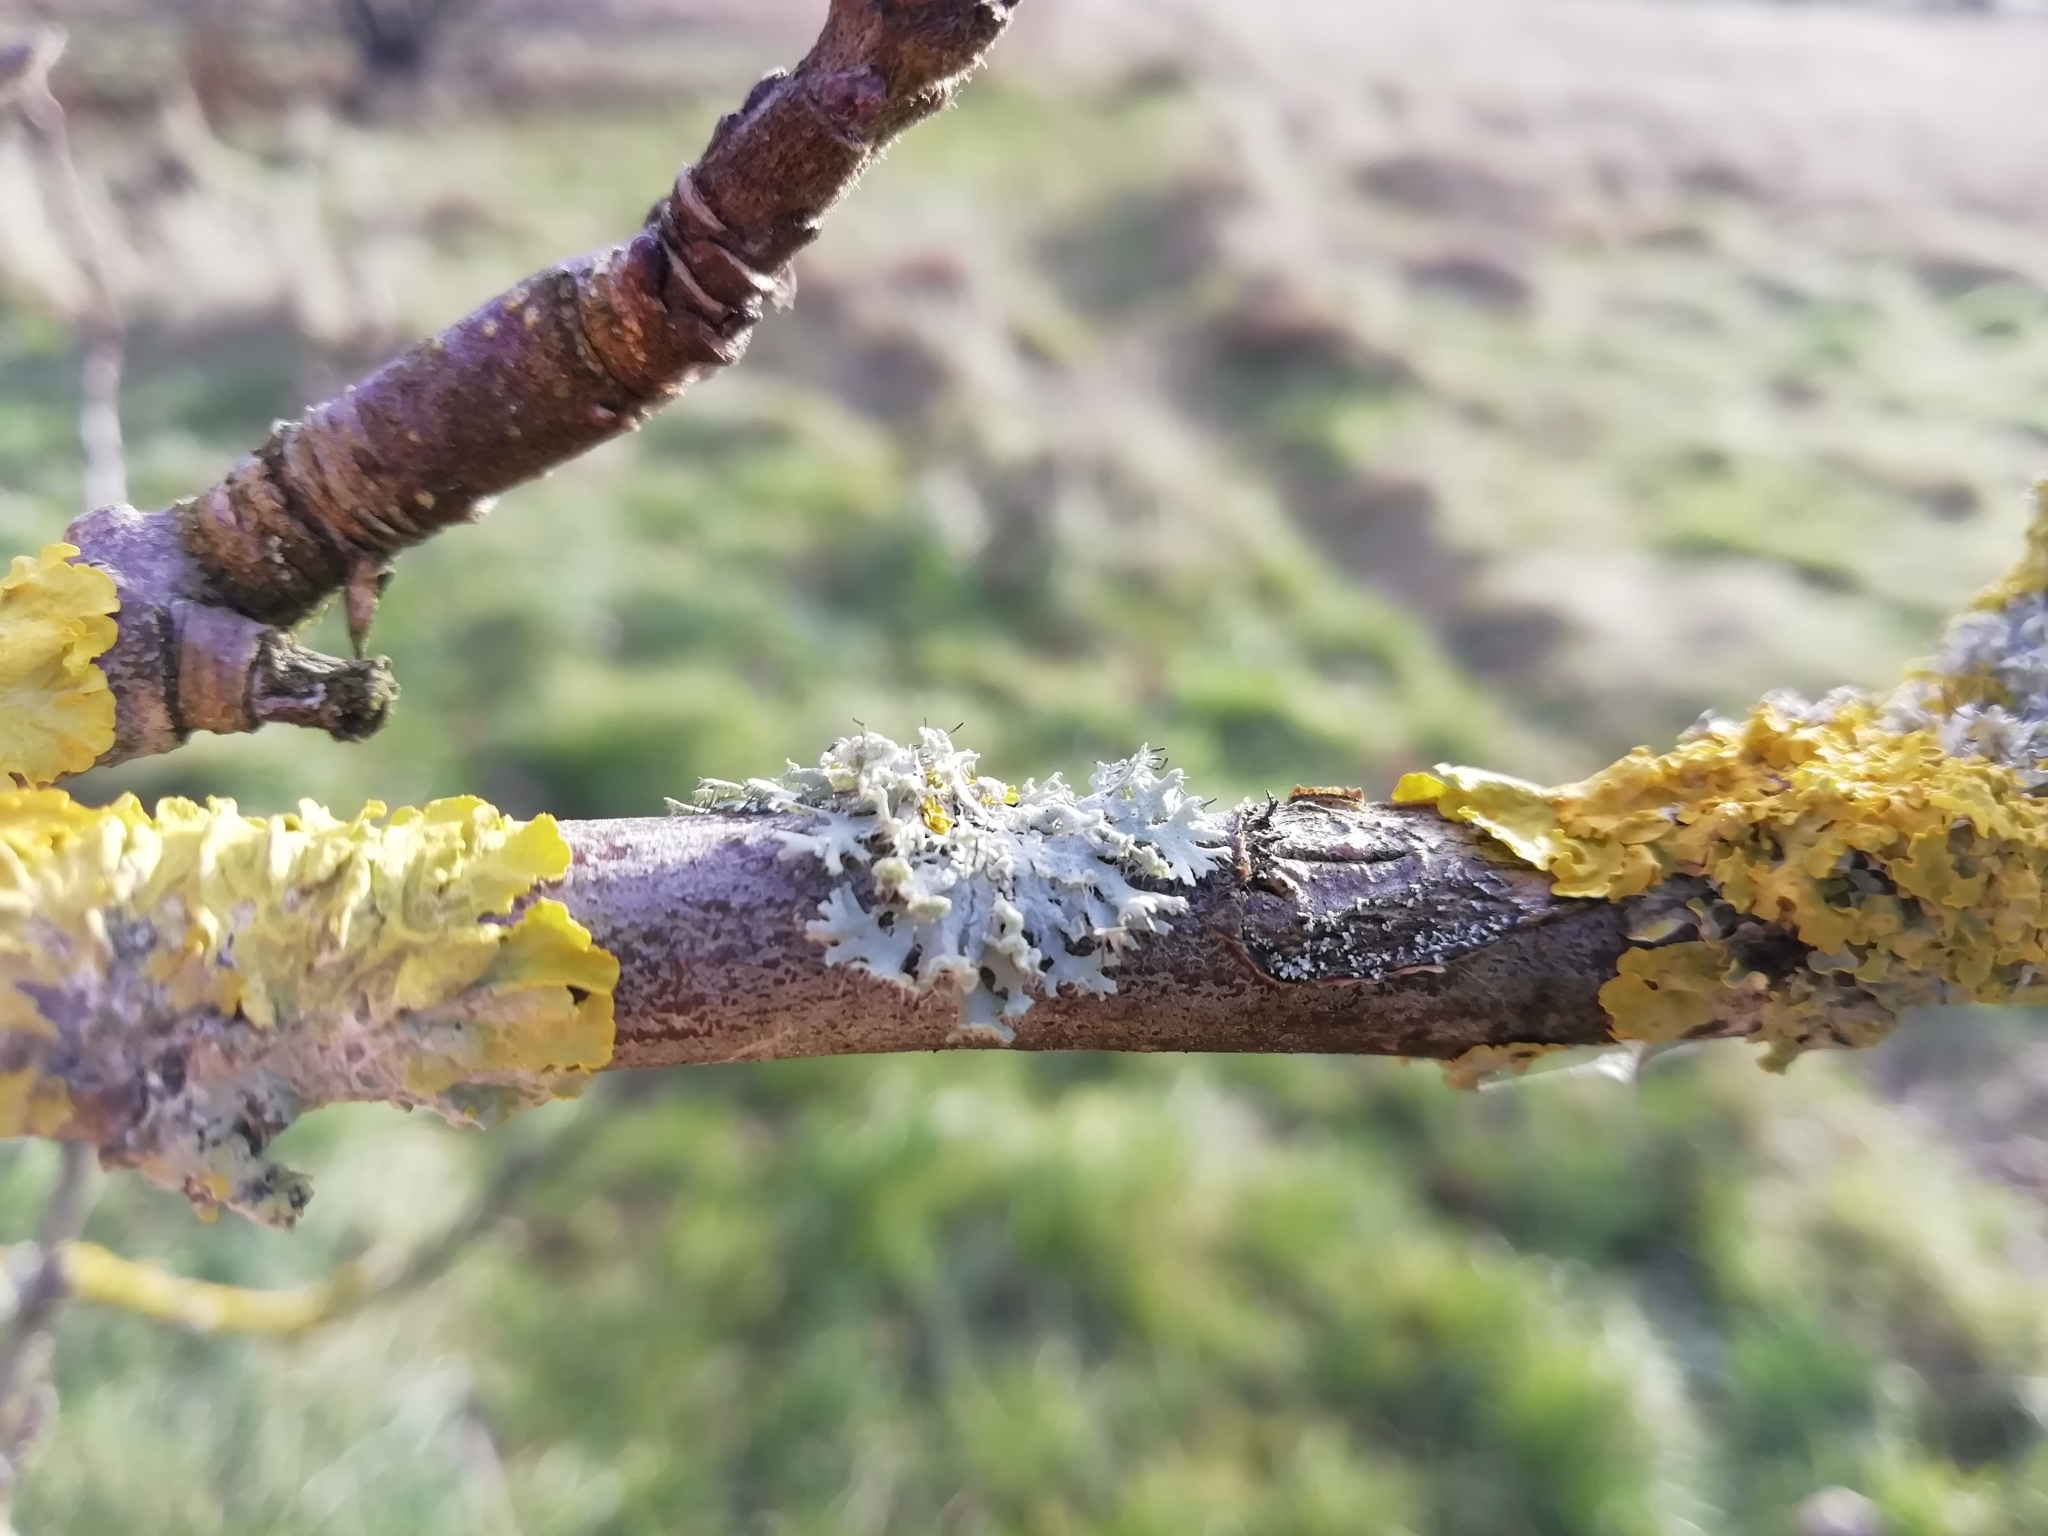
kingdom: Fungi
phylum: Ascomycota
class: Lecanoromycetes
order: Caliciales
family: Physciaceae
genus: Physcia
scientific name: Physcia tenella
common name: Fringed rosette lichen
